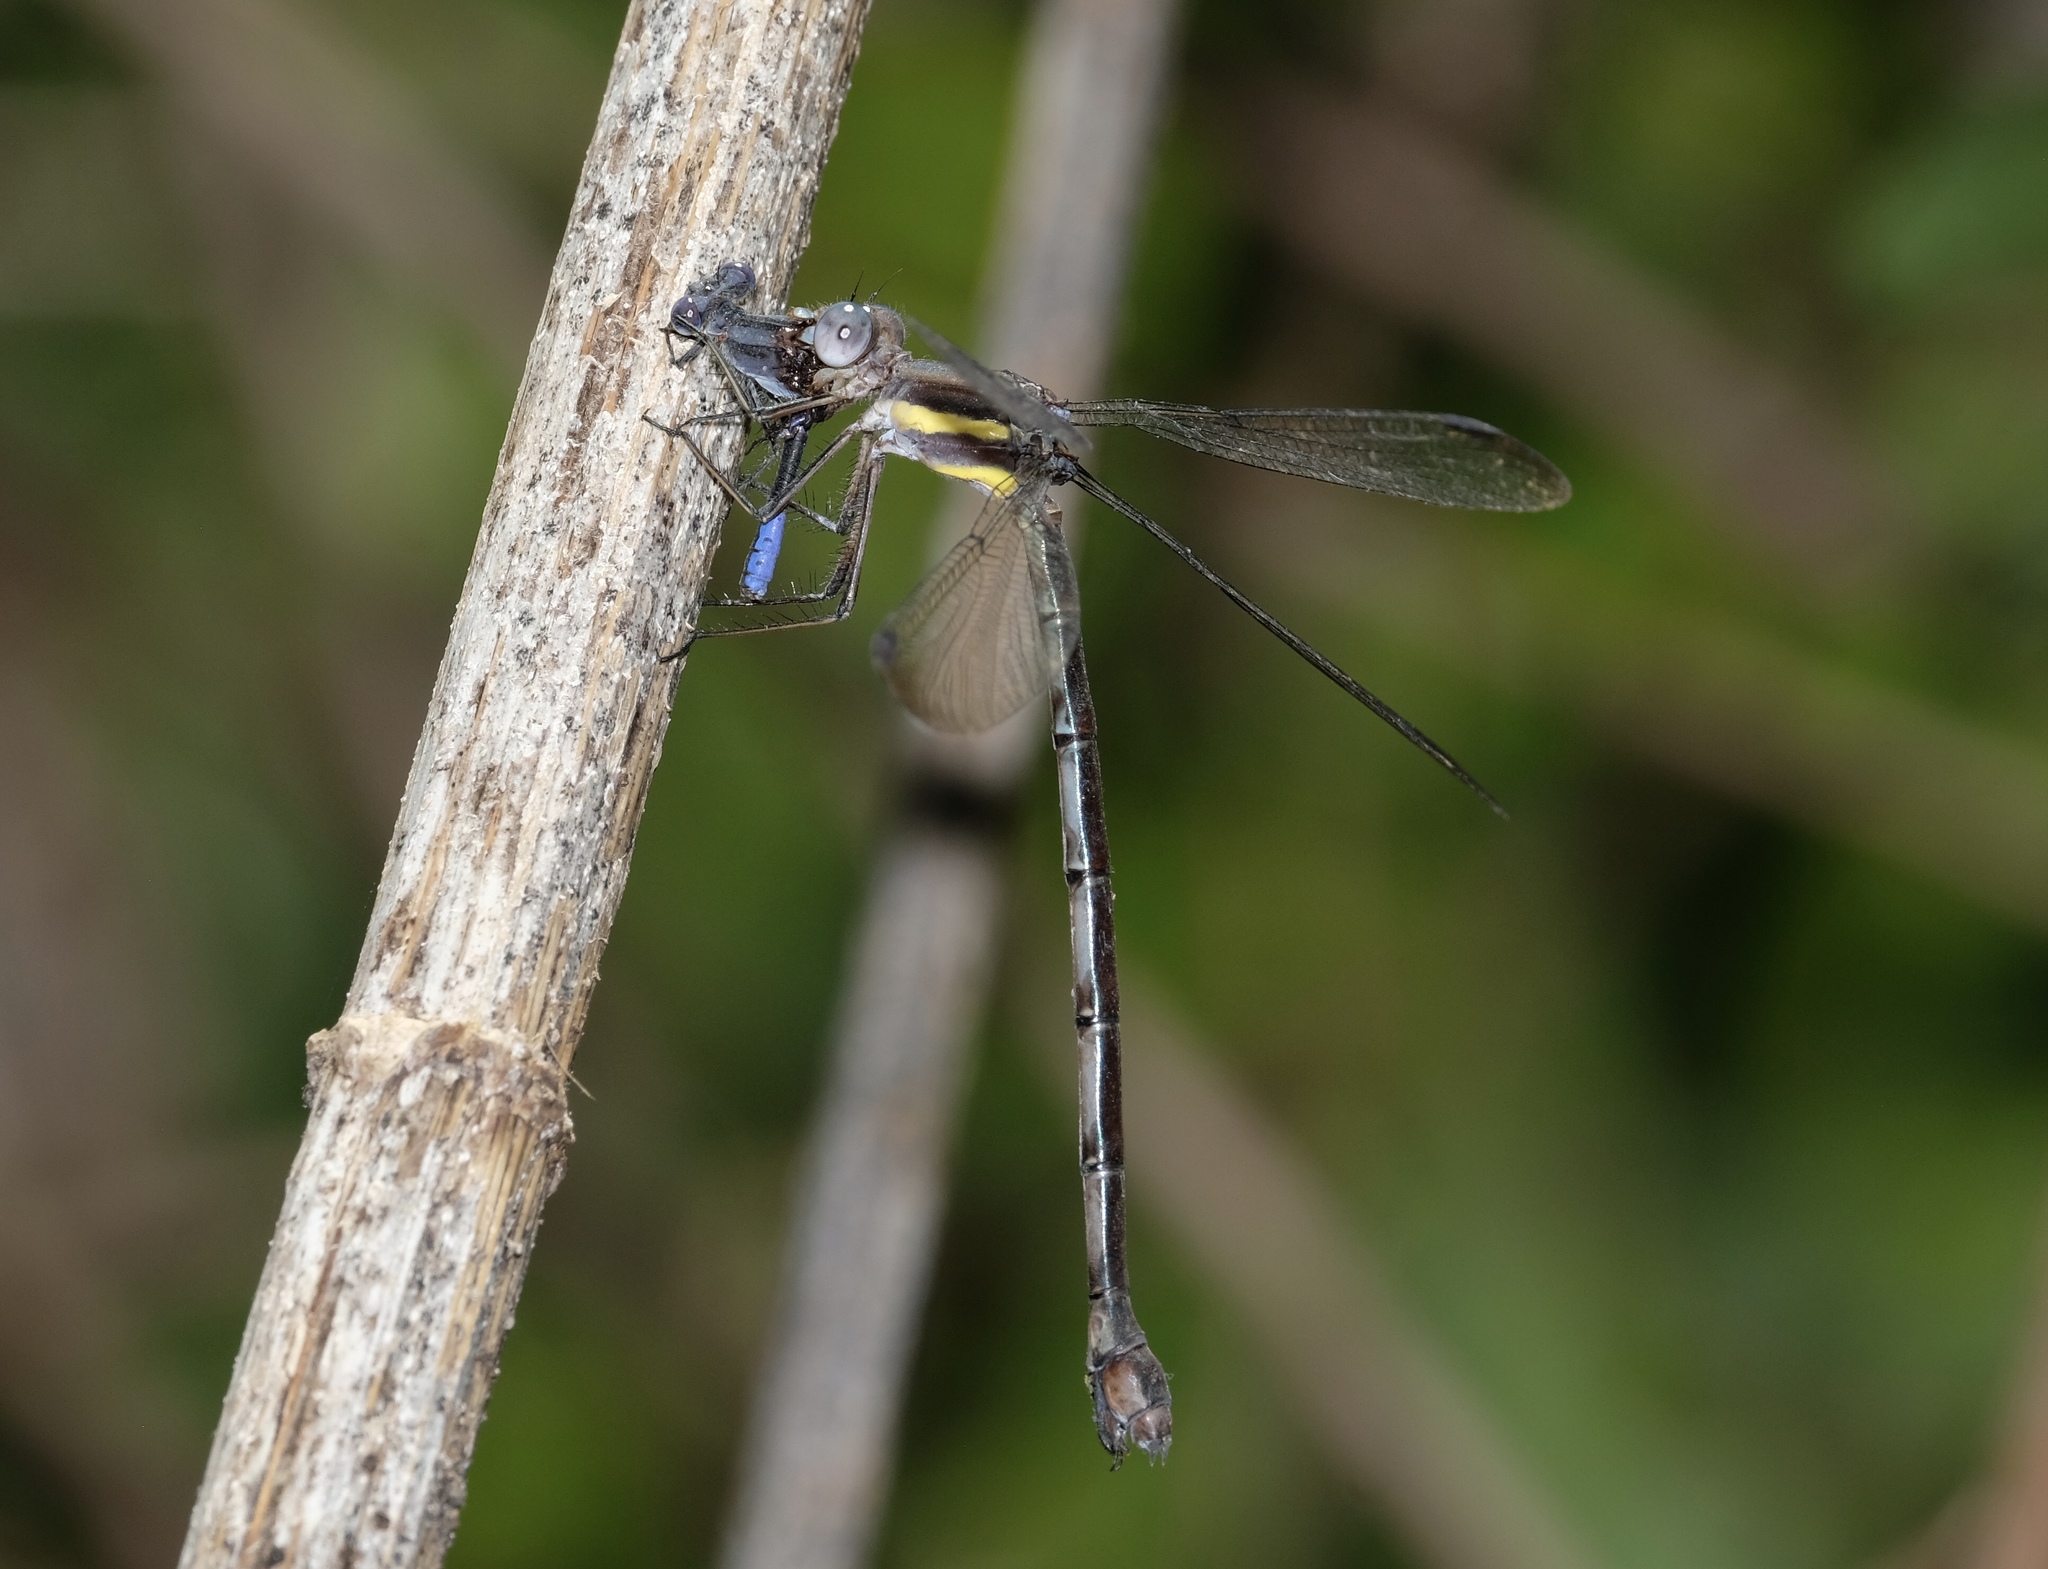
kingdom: Animalia
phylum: Arthropoda
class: Insecta
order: Odonata
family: Lestidae
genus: Archilestes
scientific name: Archilestes grandis
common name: Great spreadwing
